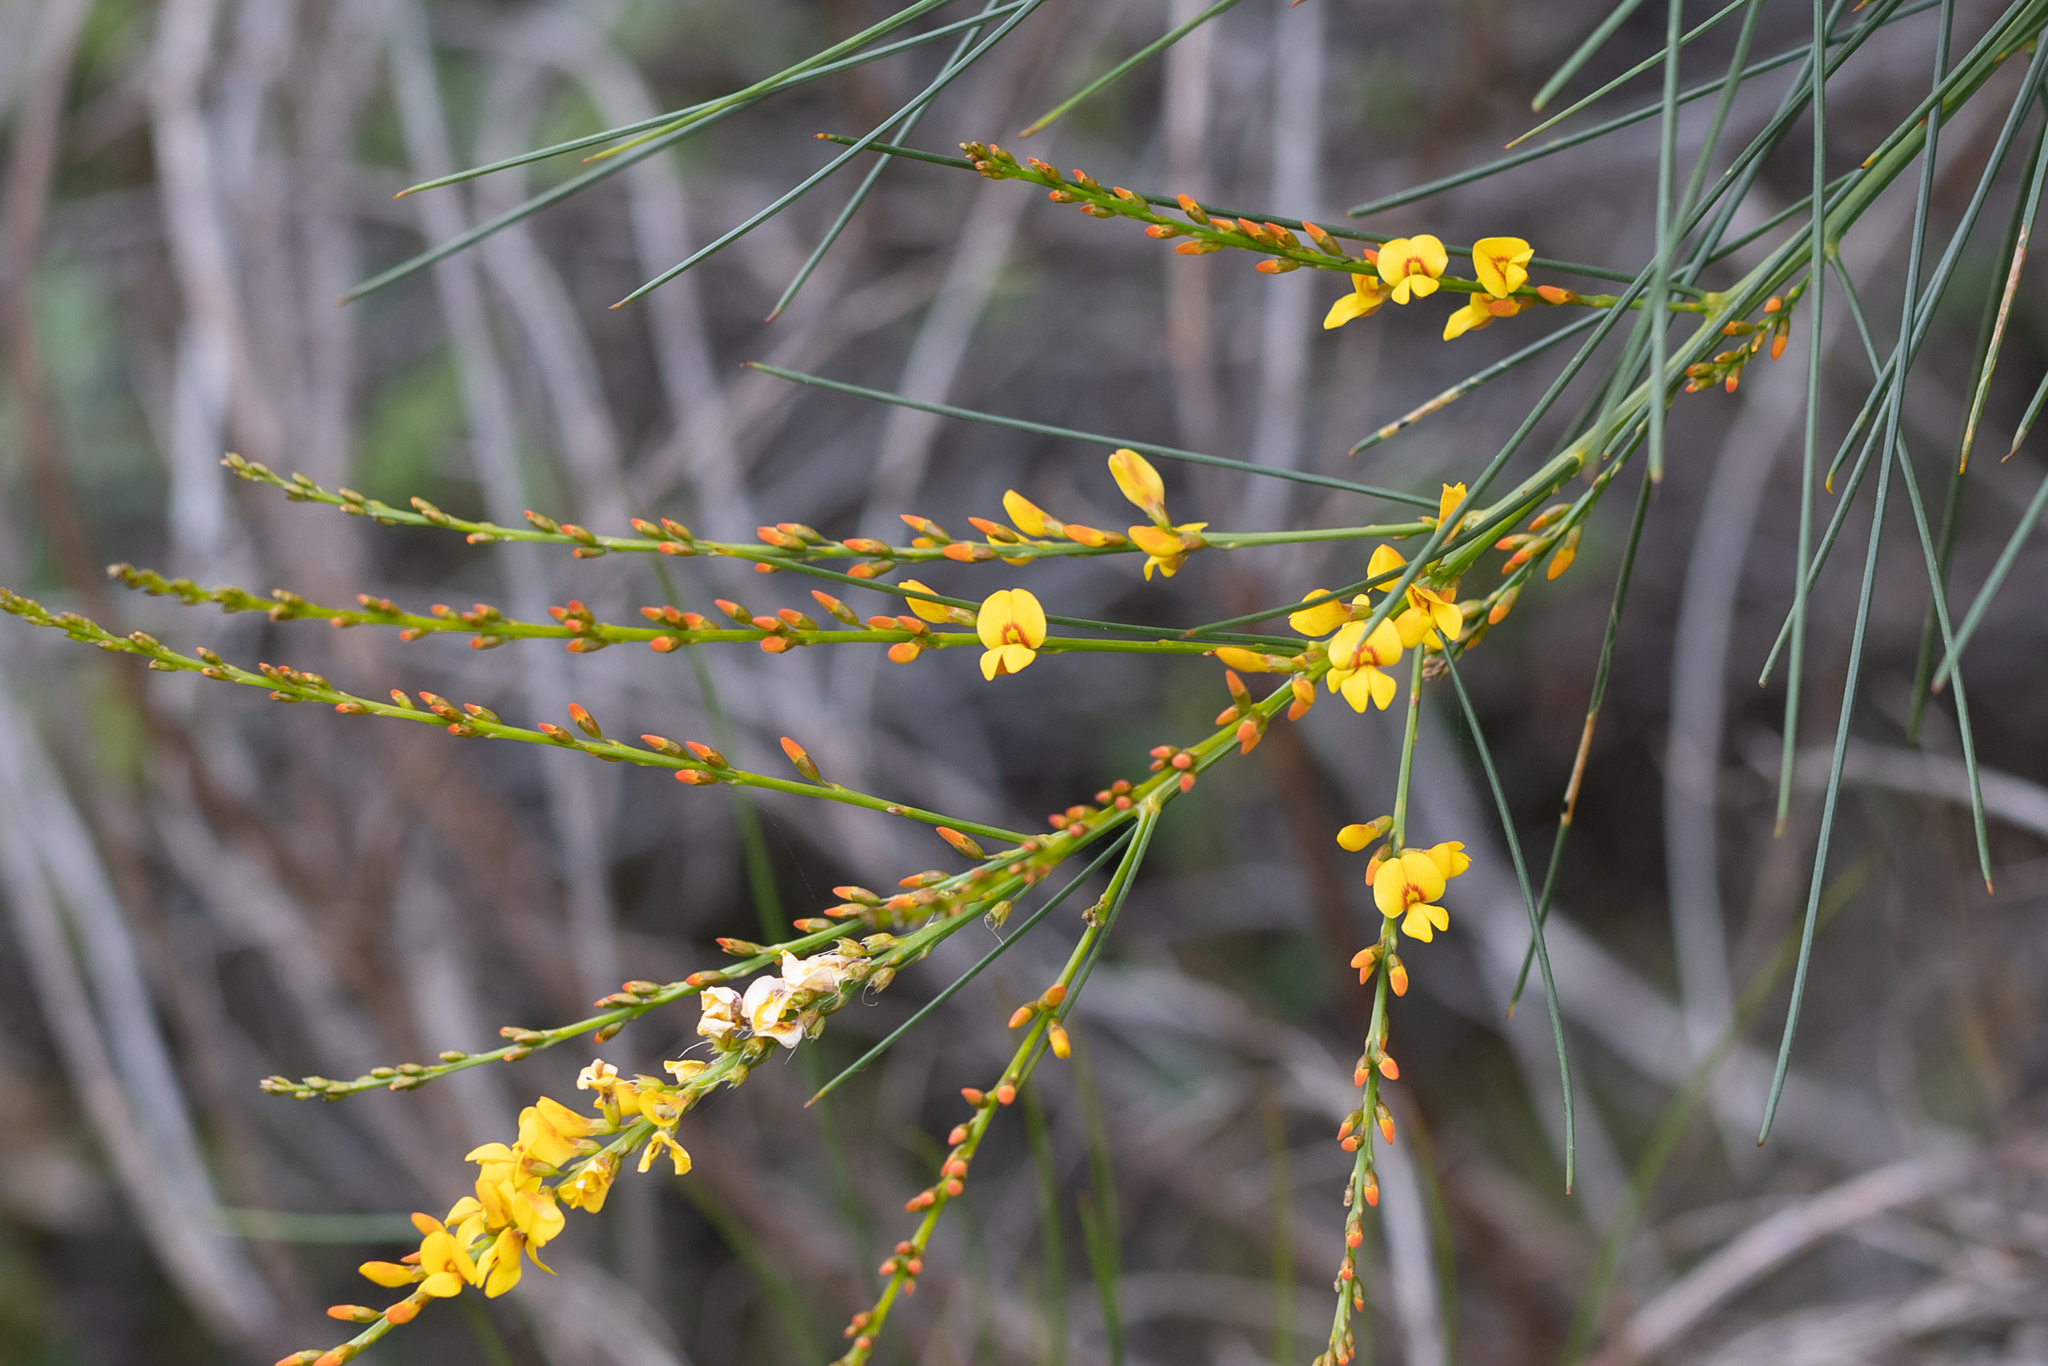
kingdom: Plantae
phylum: Tracheophyta
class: Magnoliopsida
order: Fabales
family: Fabaceae
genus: Viminaria
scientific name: Viminaria juncea
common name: Golden spray
